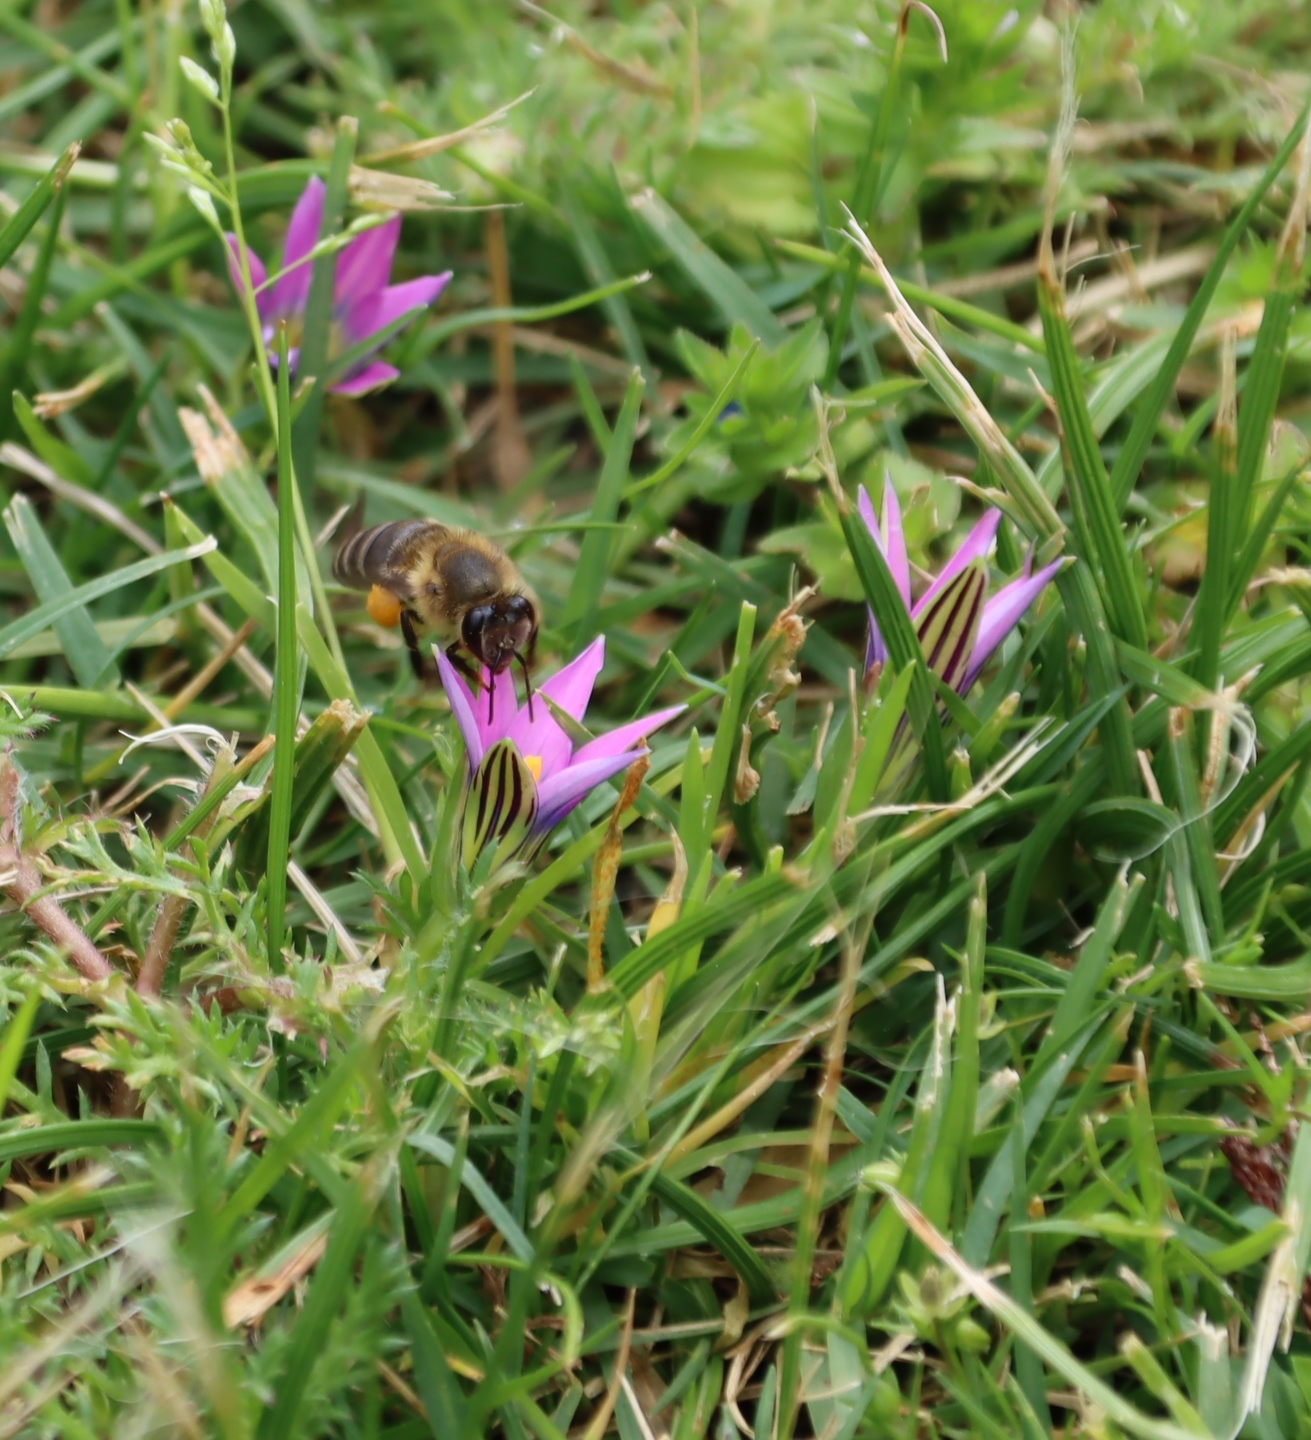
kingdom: Animalia
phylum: Arthropoda
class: Insecta
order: Hymenoptera
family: Apidae
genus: Apis
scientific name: Apis mellifera
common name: Honey bee
